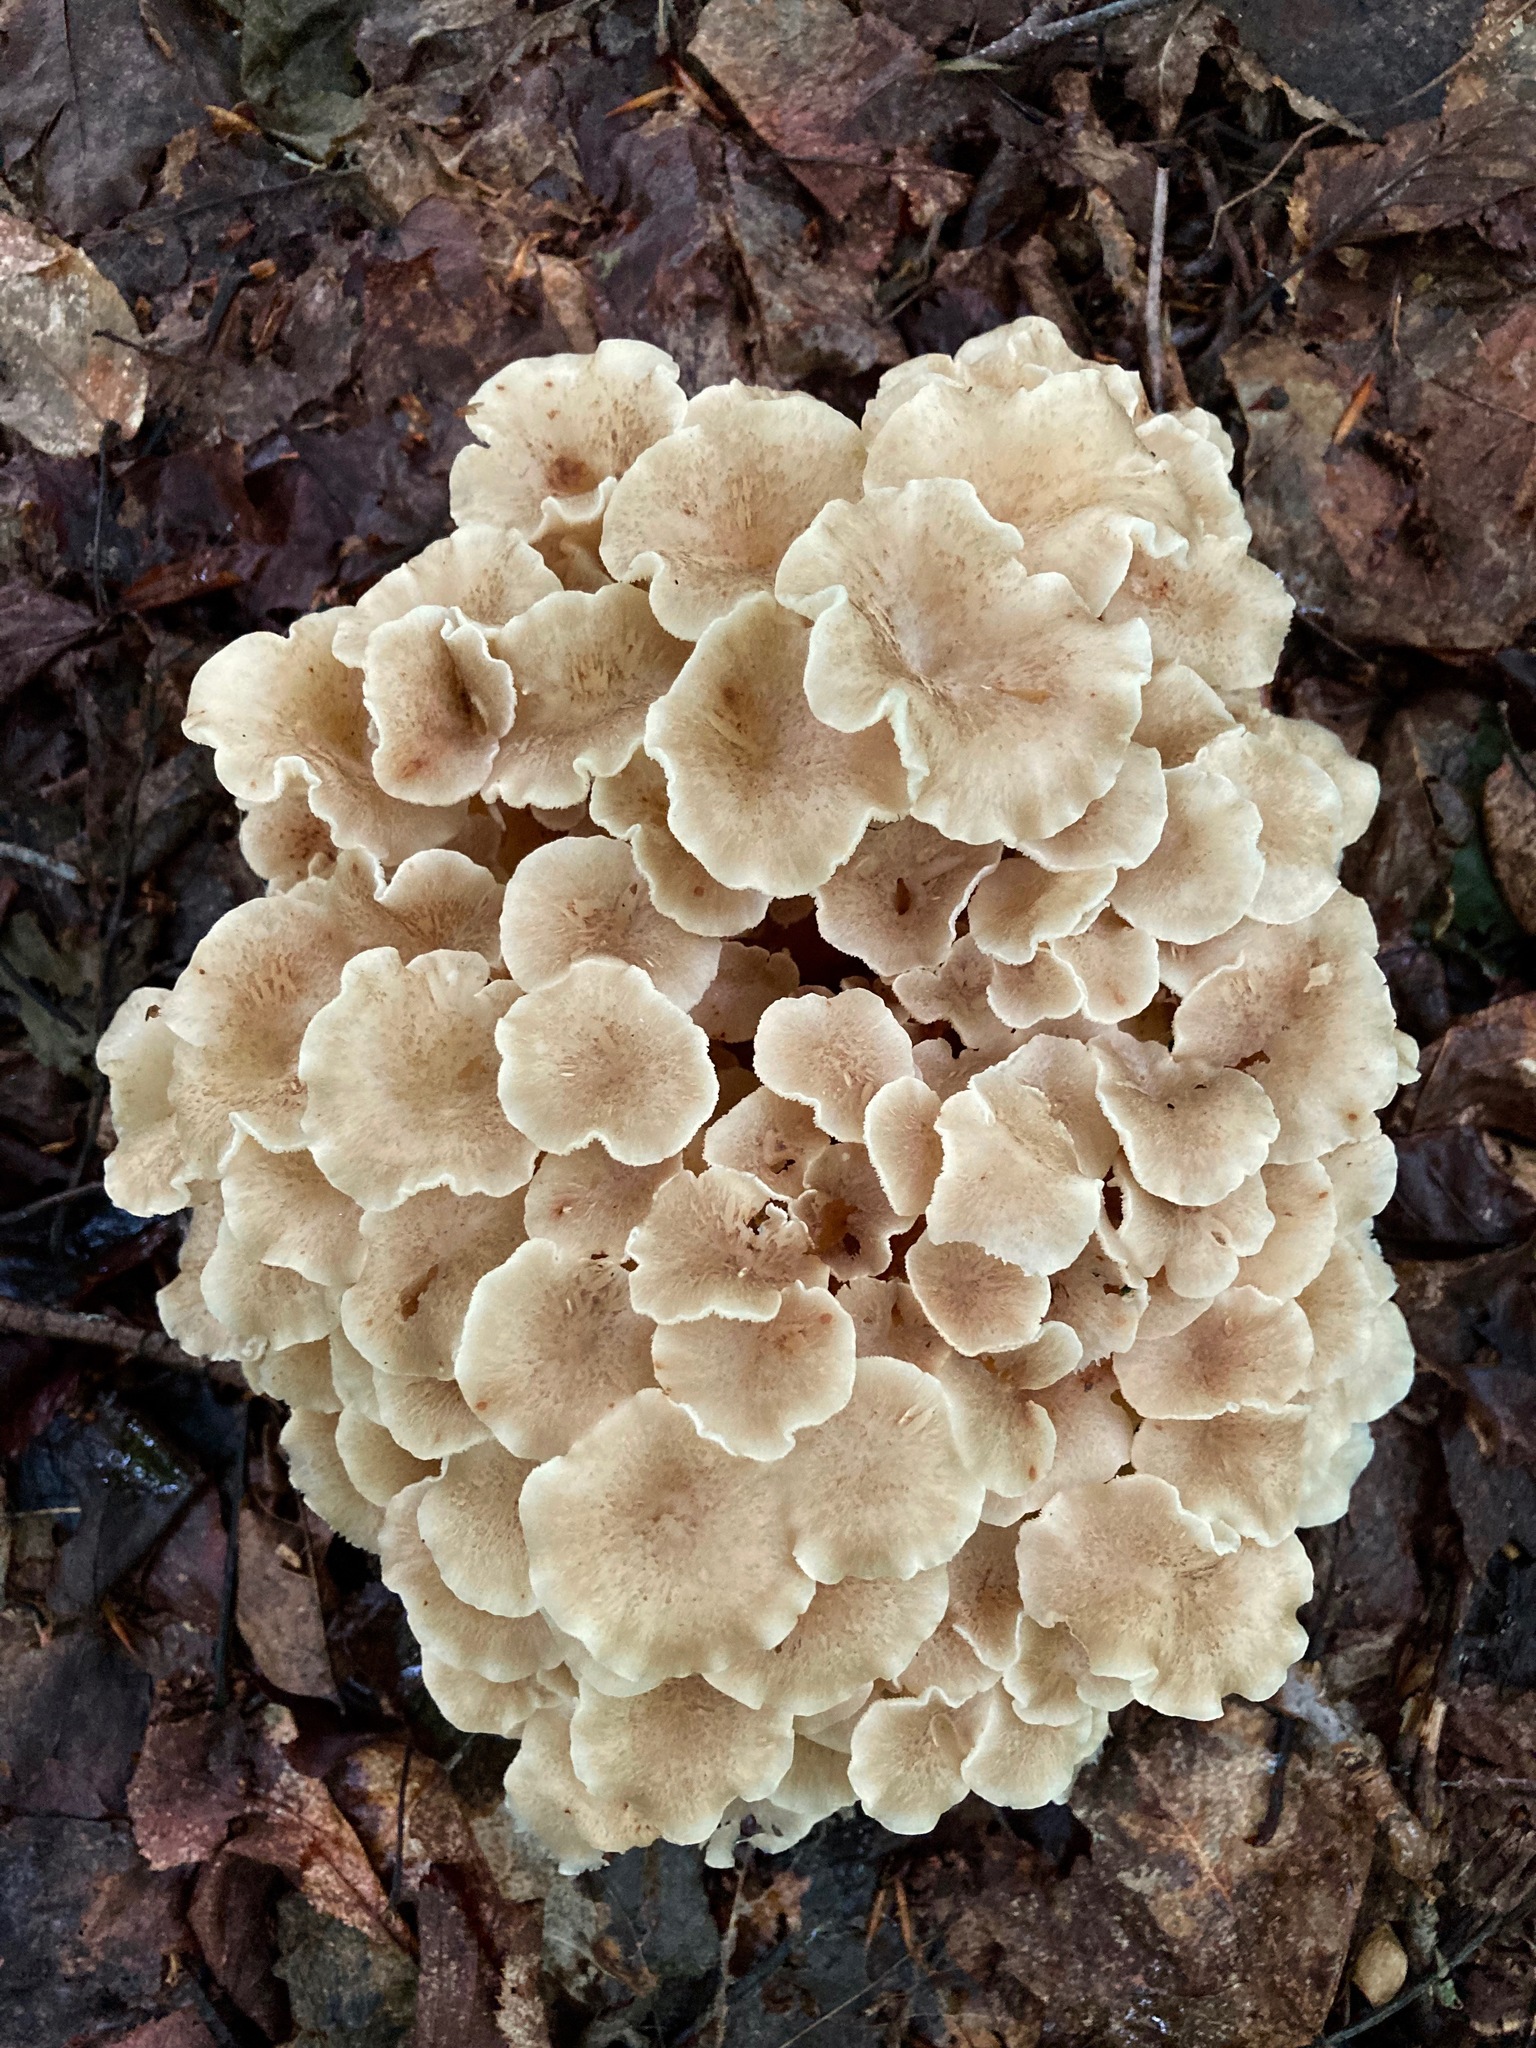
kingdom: Fungi
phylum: Basidiomycota
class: Agaricomycetes
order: Polyporales
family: Polyporaceae
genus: Polyporus
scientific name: Polyporus umbellatus
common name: Umbrella polypore
